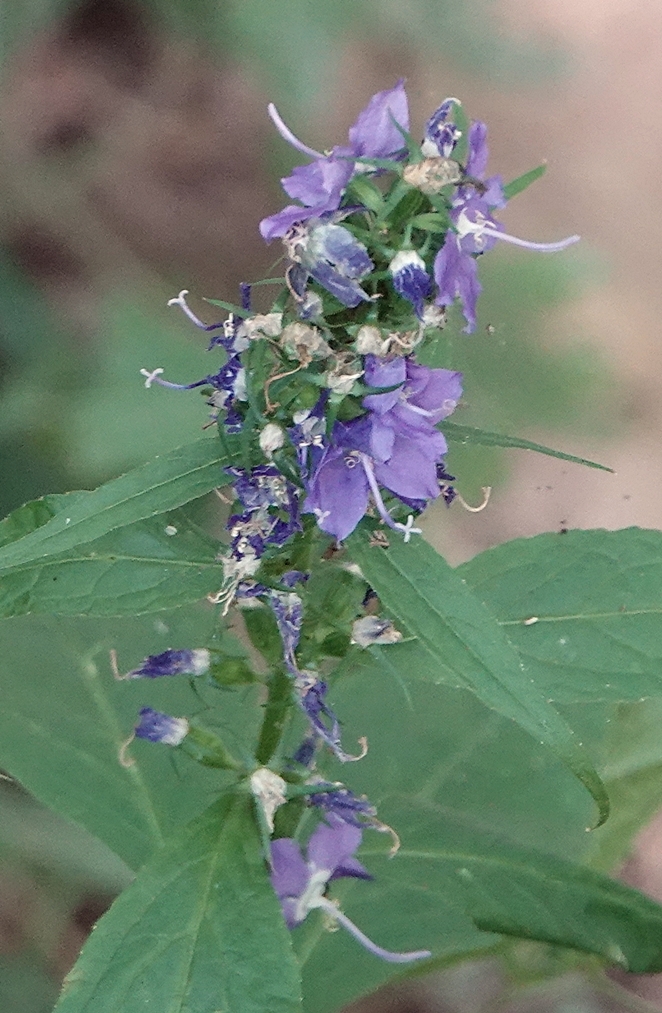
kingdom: Plantae
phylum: Tracheophyta
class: Magnoliopsida
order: Asterales
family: Campanulaceae
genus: Campanulastrum
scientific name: Campanulastrum americanum
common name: American bellflower
